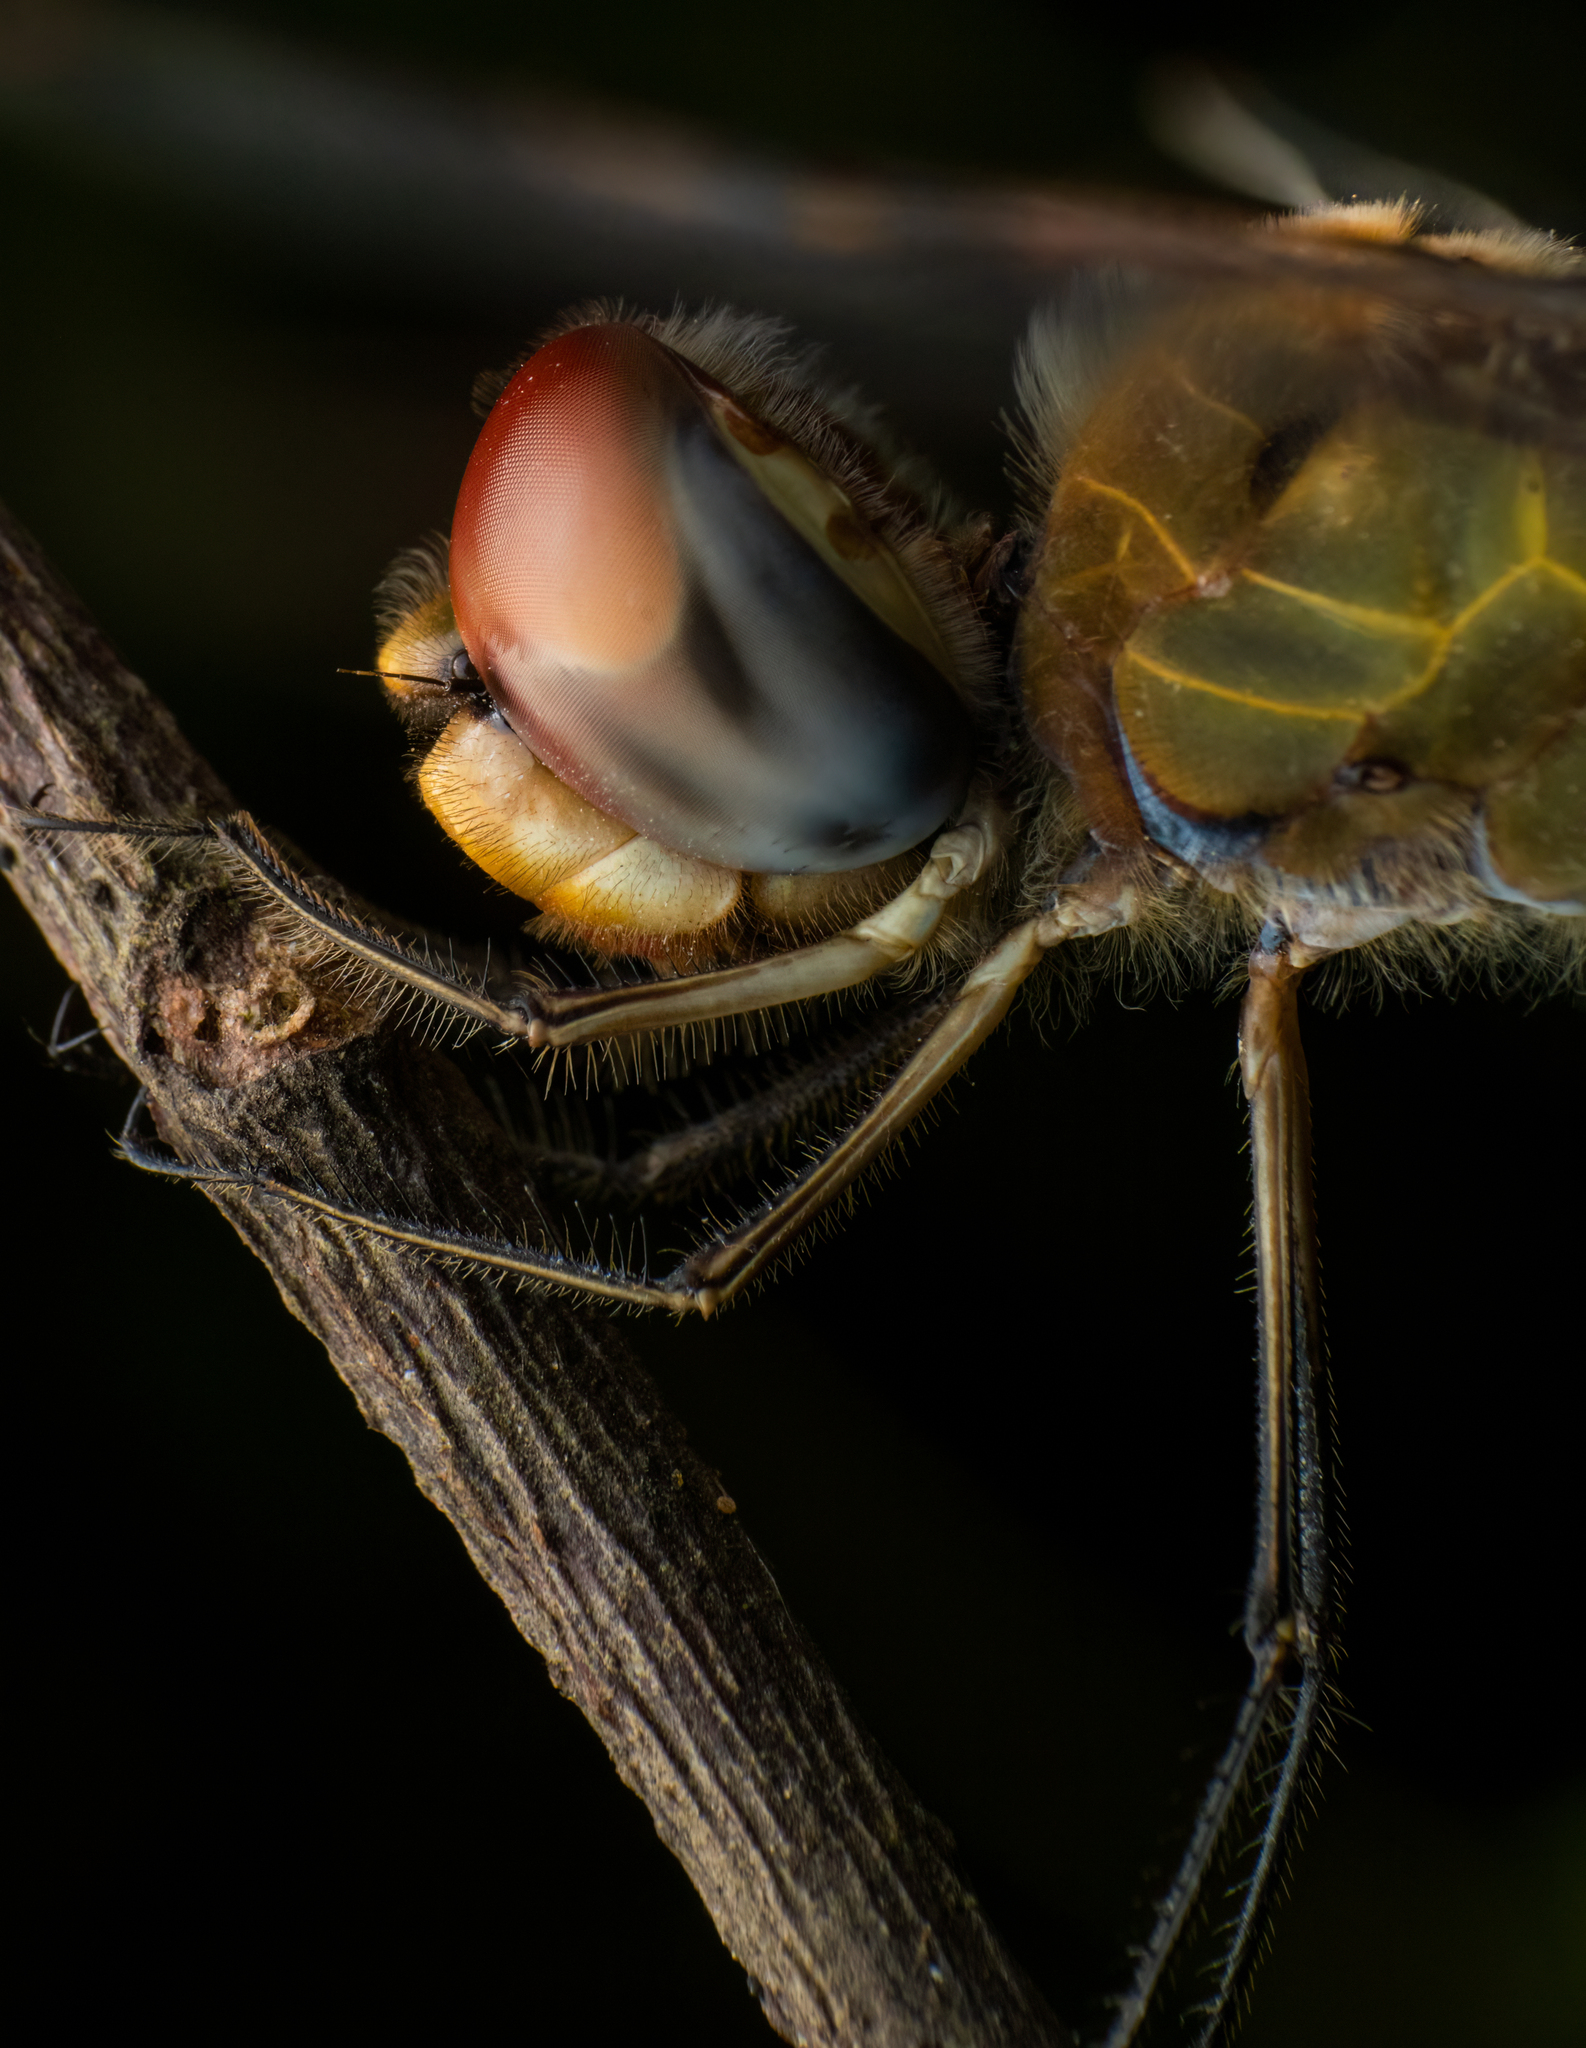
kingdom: Animalia
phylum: Arthropoda
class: Insecta
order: Odonata
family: Libellulidae
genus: Pantala
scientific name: Pantala flavescens
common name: Wandering glider
